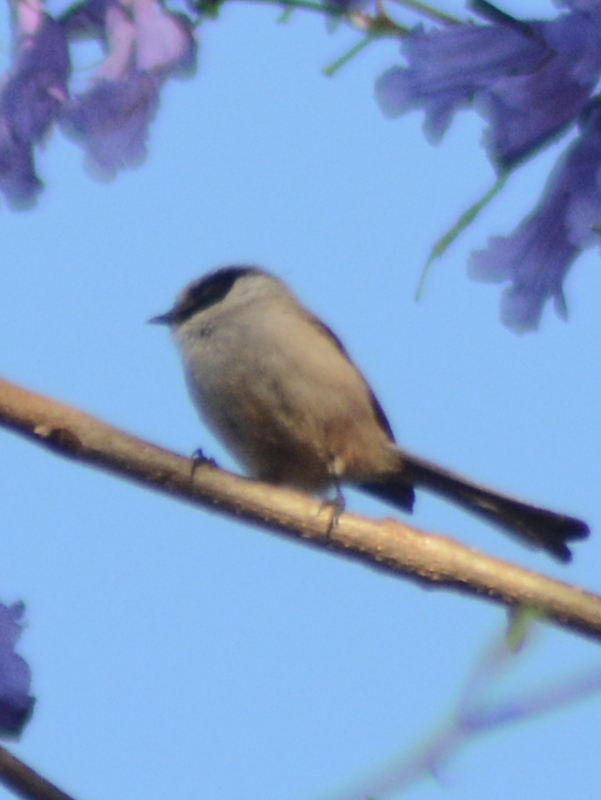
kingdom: Animalia
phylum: Chordata
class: Aves
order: Passeriformes
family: Aegithalidae
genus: Psaltriparus
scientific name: Psaltriparus minimus
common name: American bushtit
